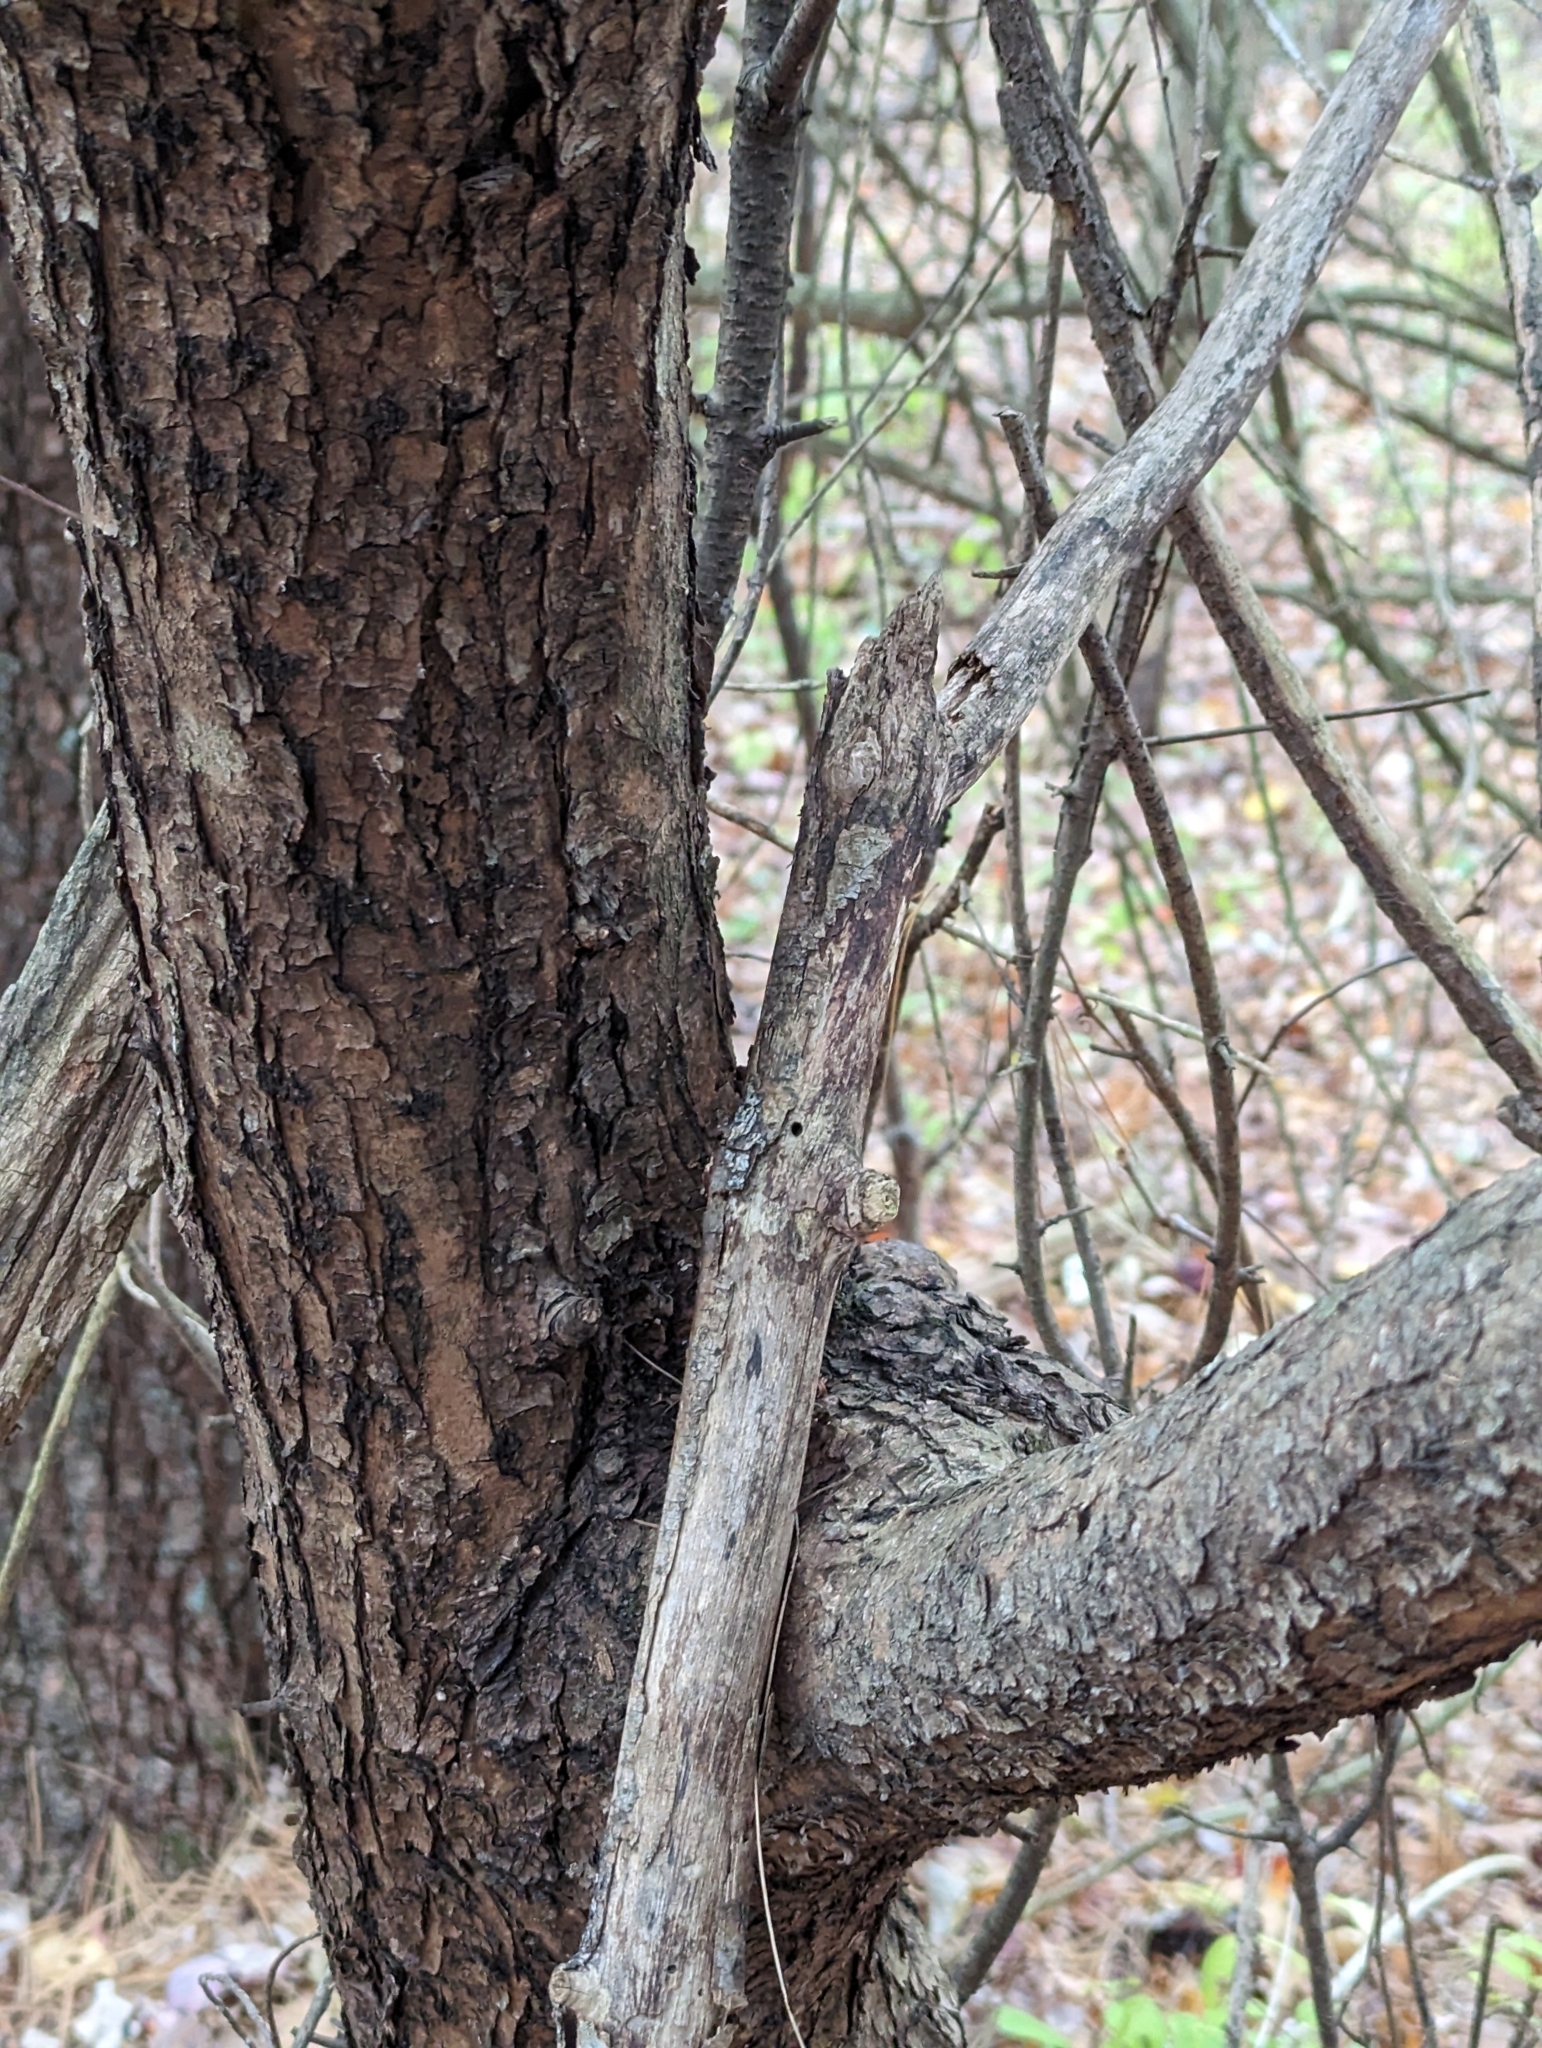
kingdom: Plantae
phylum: Tracheophyta
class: Magnoliopsida
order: Rosales
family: Rhamnaceae
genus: Rhamnus
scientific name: Rhamnus cathartica
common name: Common buckthorn
